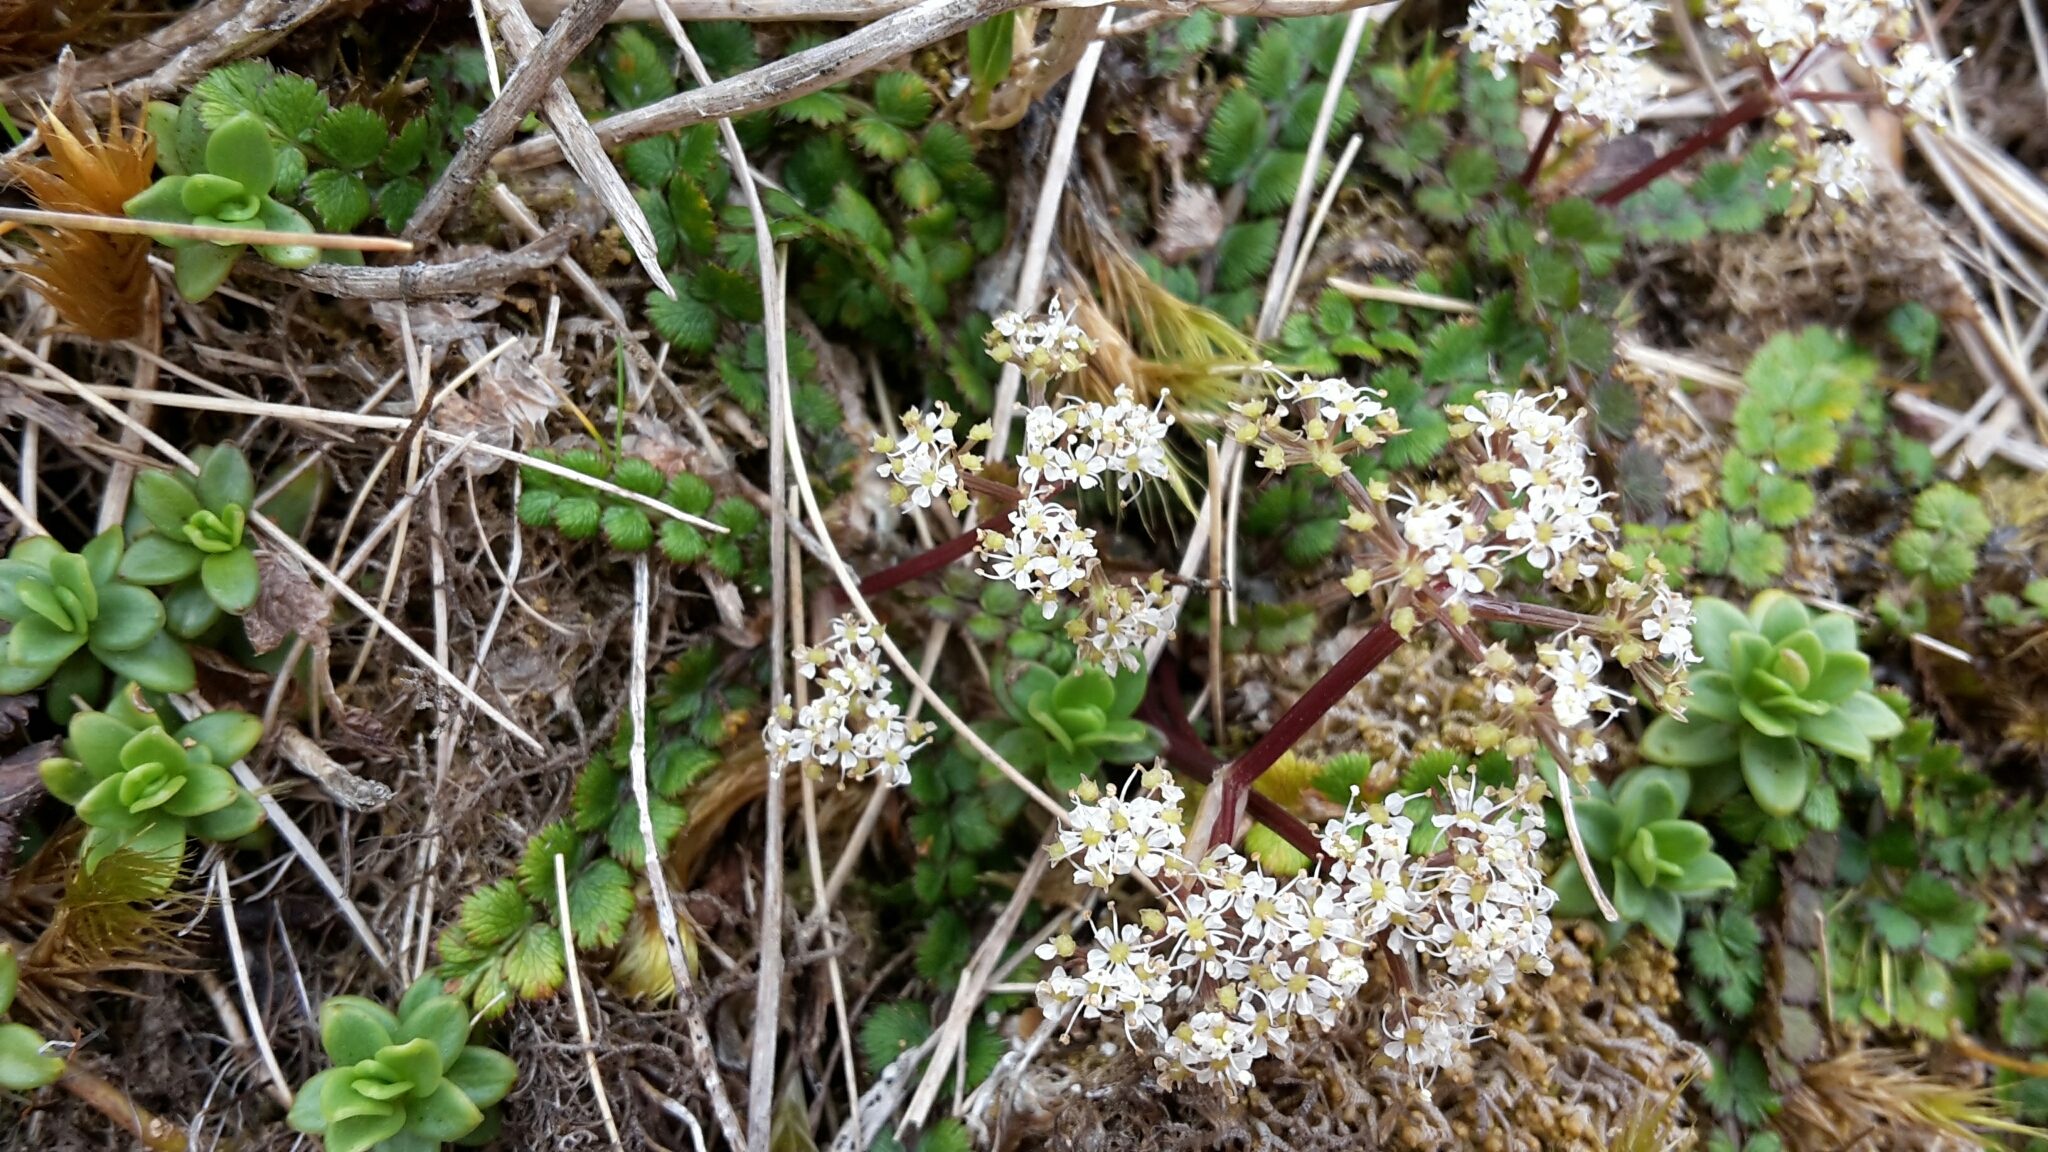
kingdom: Plantae
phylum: Tracheophyta
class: Magnoliopsida
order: Apiales
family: Apiaceae
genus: Anisotome
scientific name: Anisotome aromatica
